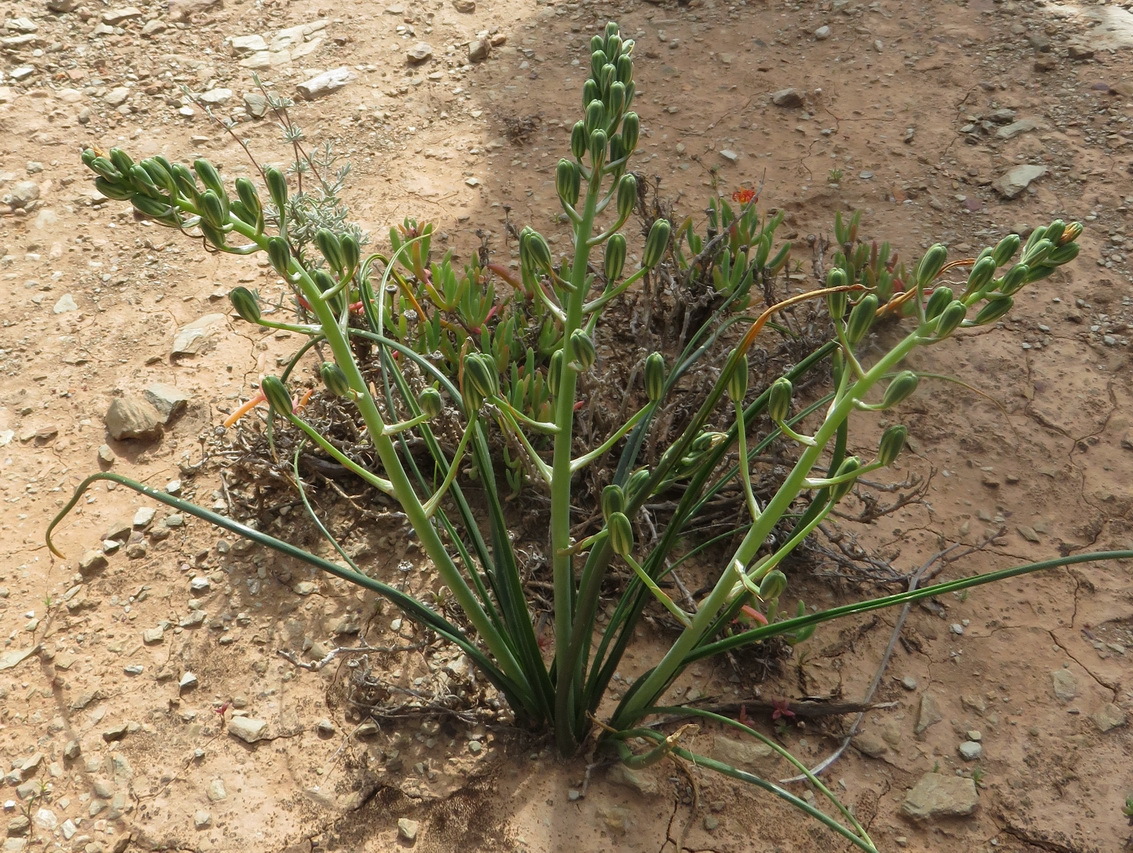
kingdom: Plantae
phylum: Tracheophyta
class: Liliopsida
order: Asparagales
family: Asparagaceae
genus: Albuca
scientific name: Albuca longipes
